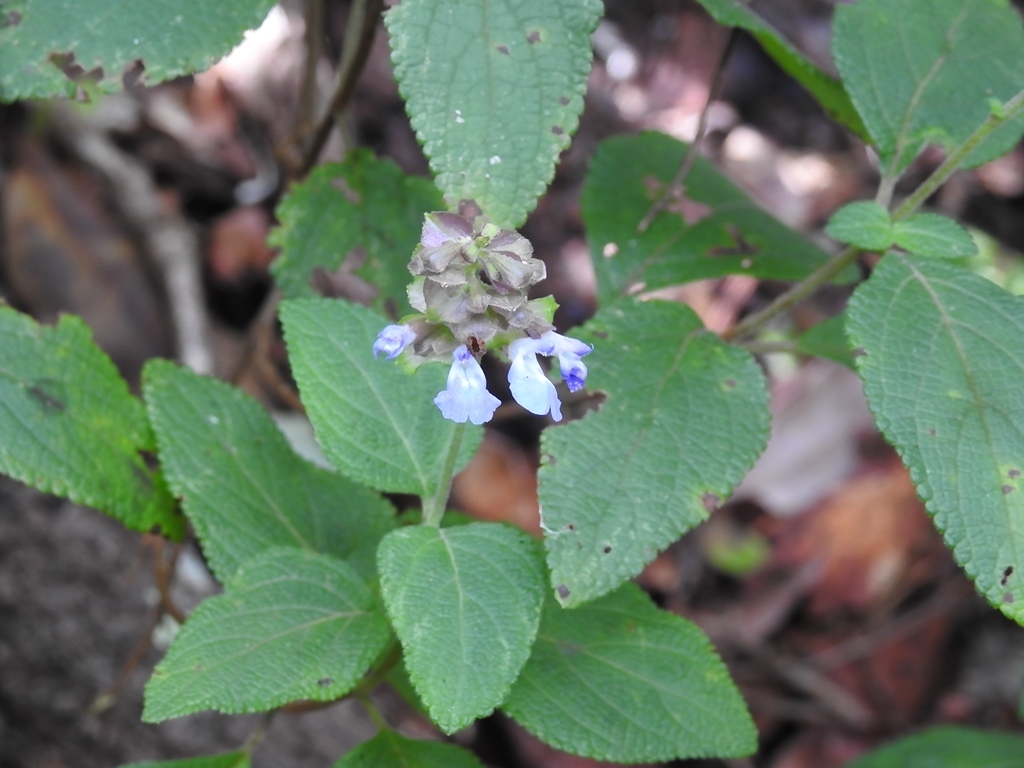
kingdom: Plantae
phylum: Tracheophyta
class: Magnoliopsida
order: Lamiales
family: Lamiaceae
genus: Salvia
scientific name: Salvia mocinoi
